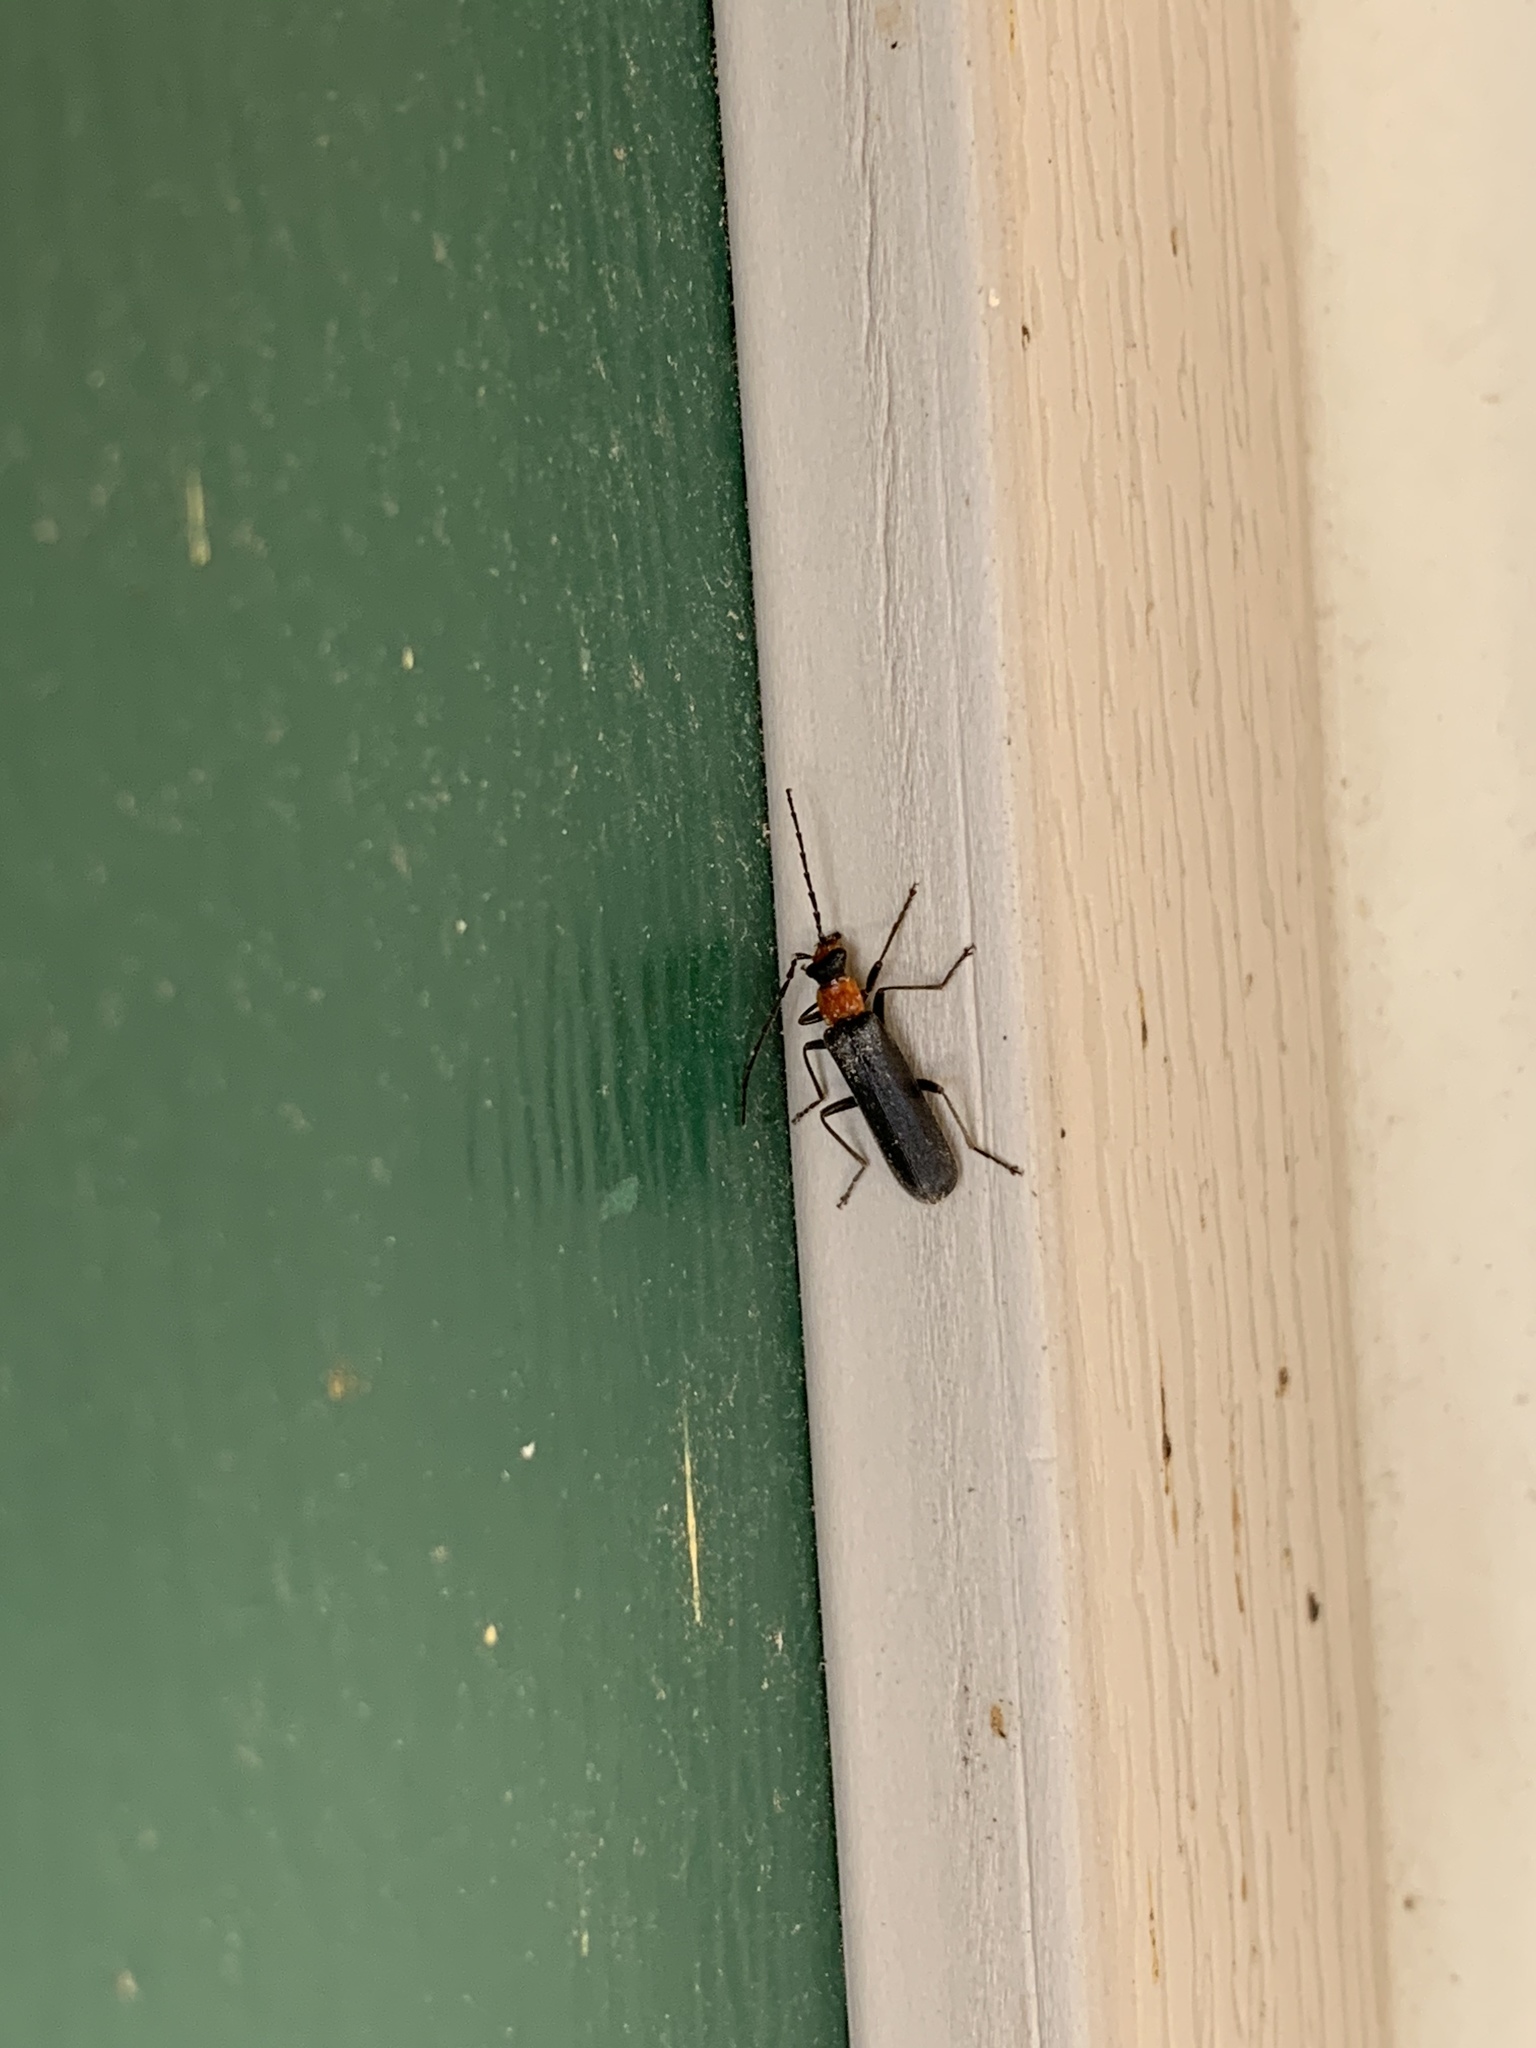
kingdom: Animalia
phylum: Arthropoda
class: Insecta
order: Coleoptera
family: Cantharidae
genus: Podabrus
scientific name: Podabrus muliebris
